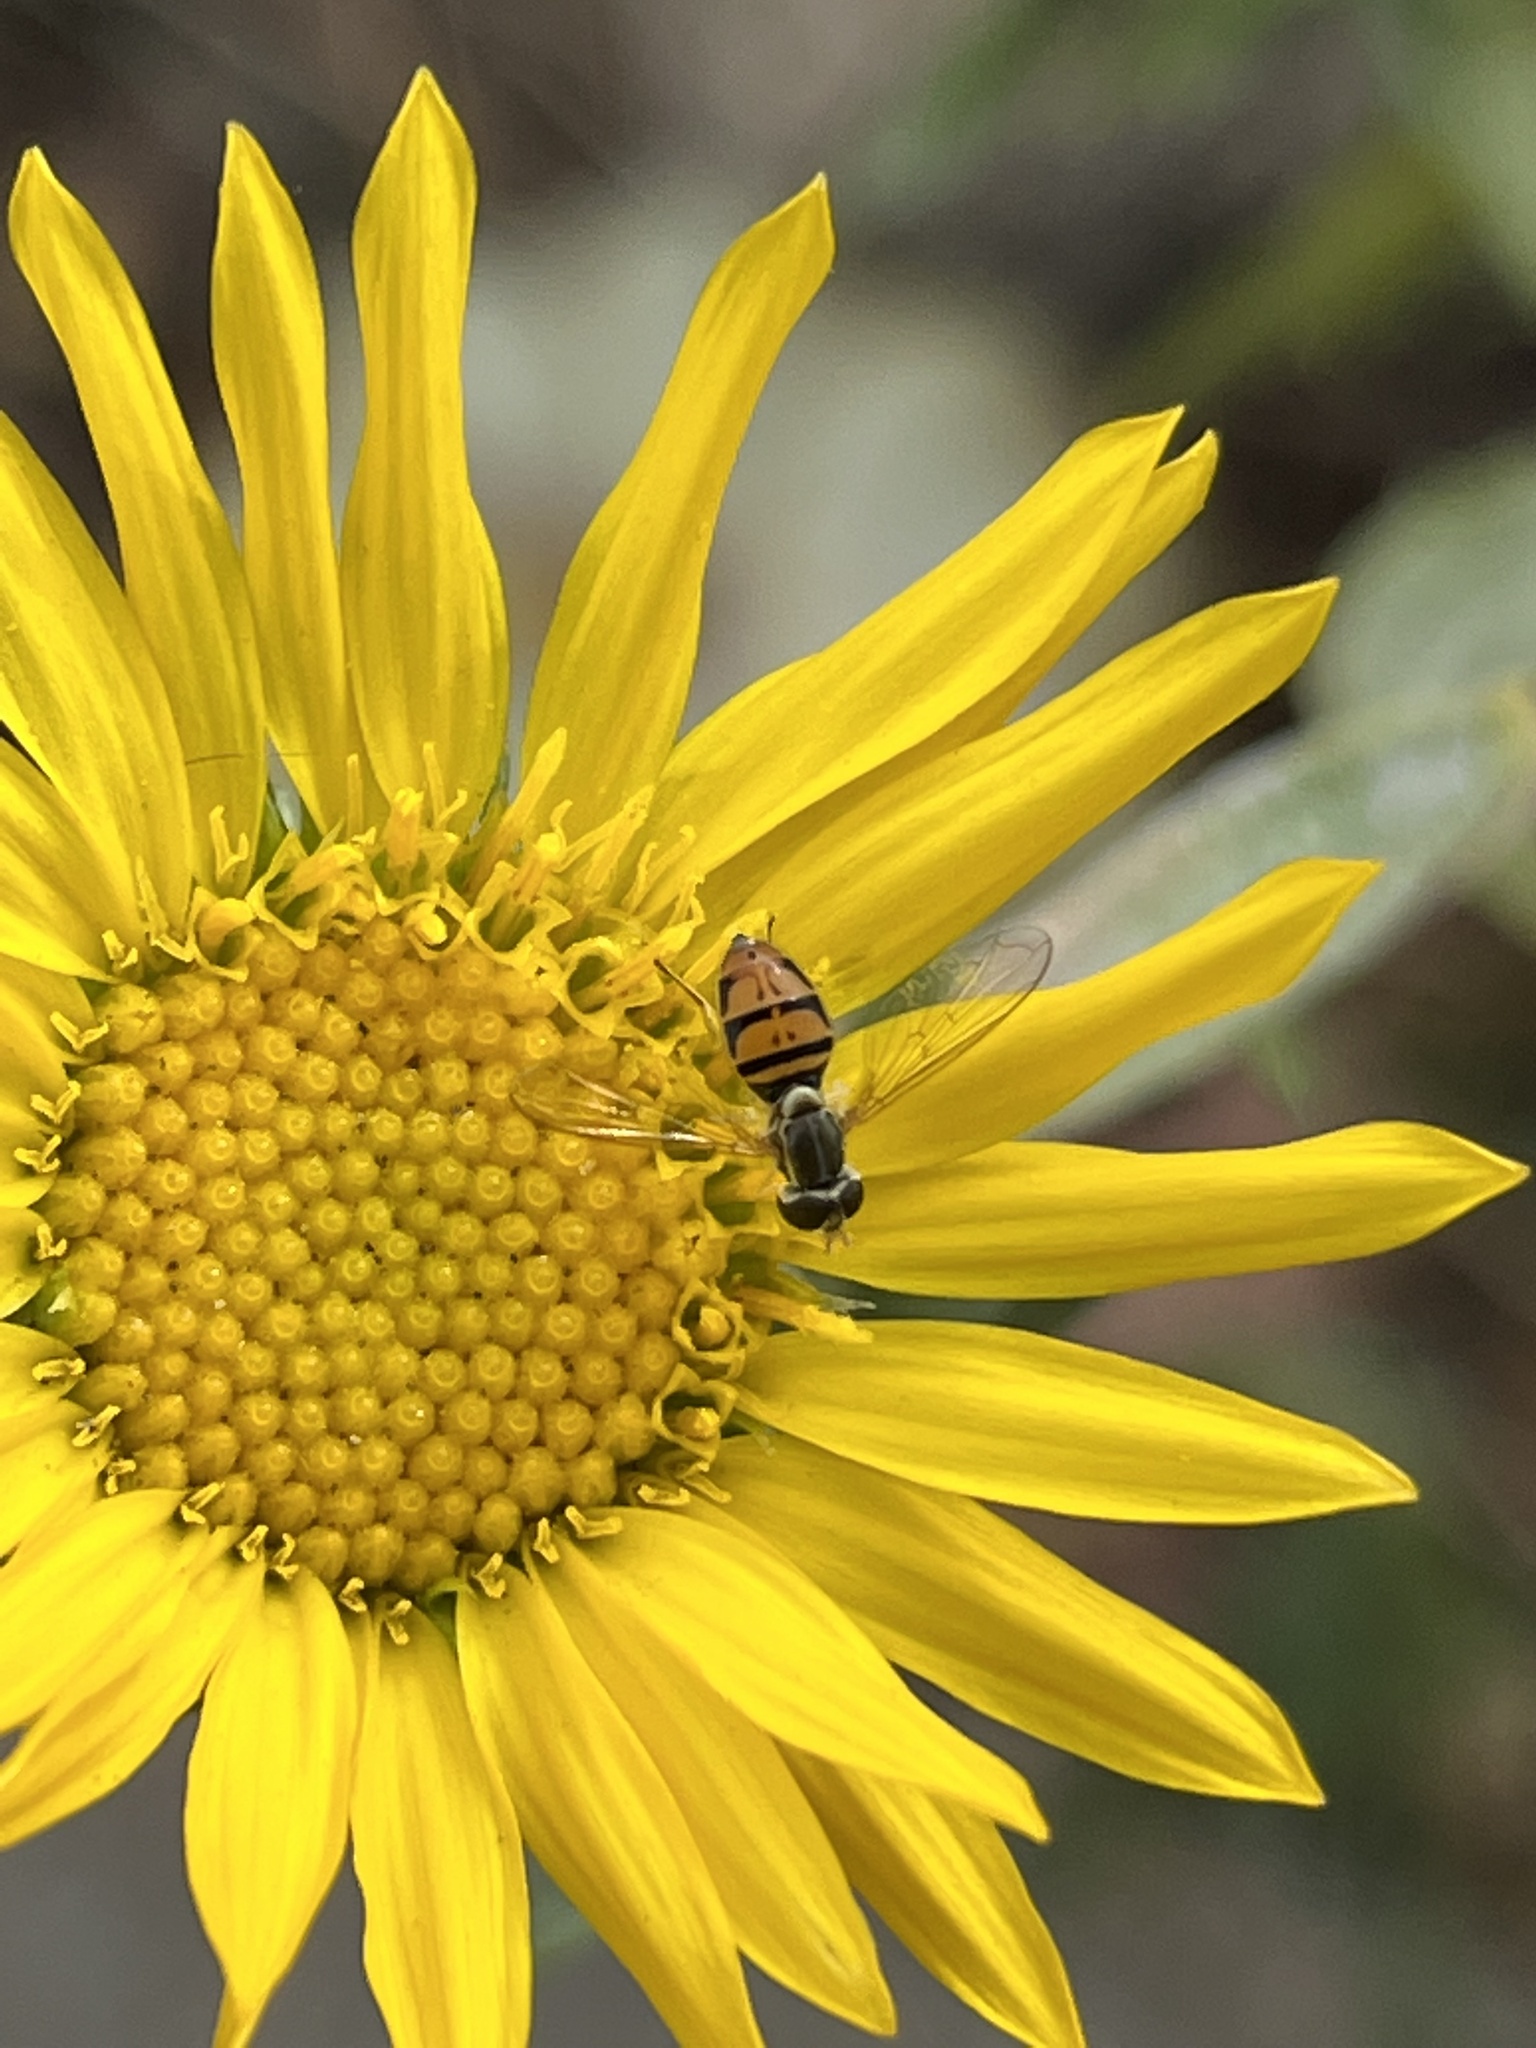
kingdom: Animalia
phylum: Arthropoda
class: Insecta
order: Diptera
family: Syrphidae
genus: Toxomerus
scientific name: Toxomerus marginatus
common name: Syrphid fly
